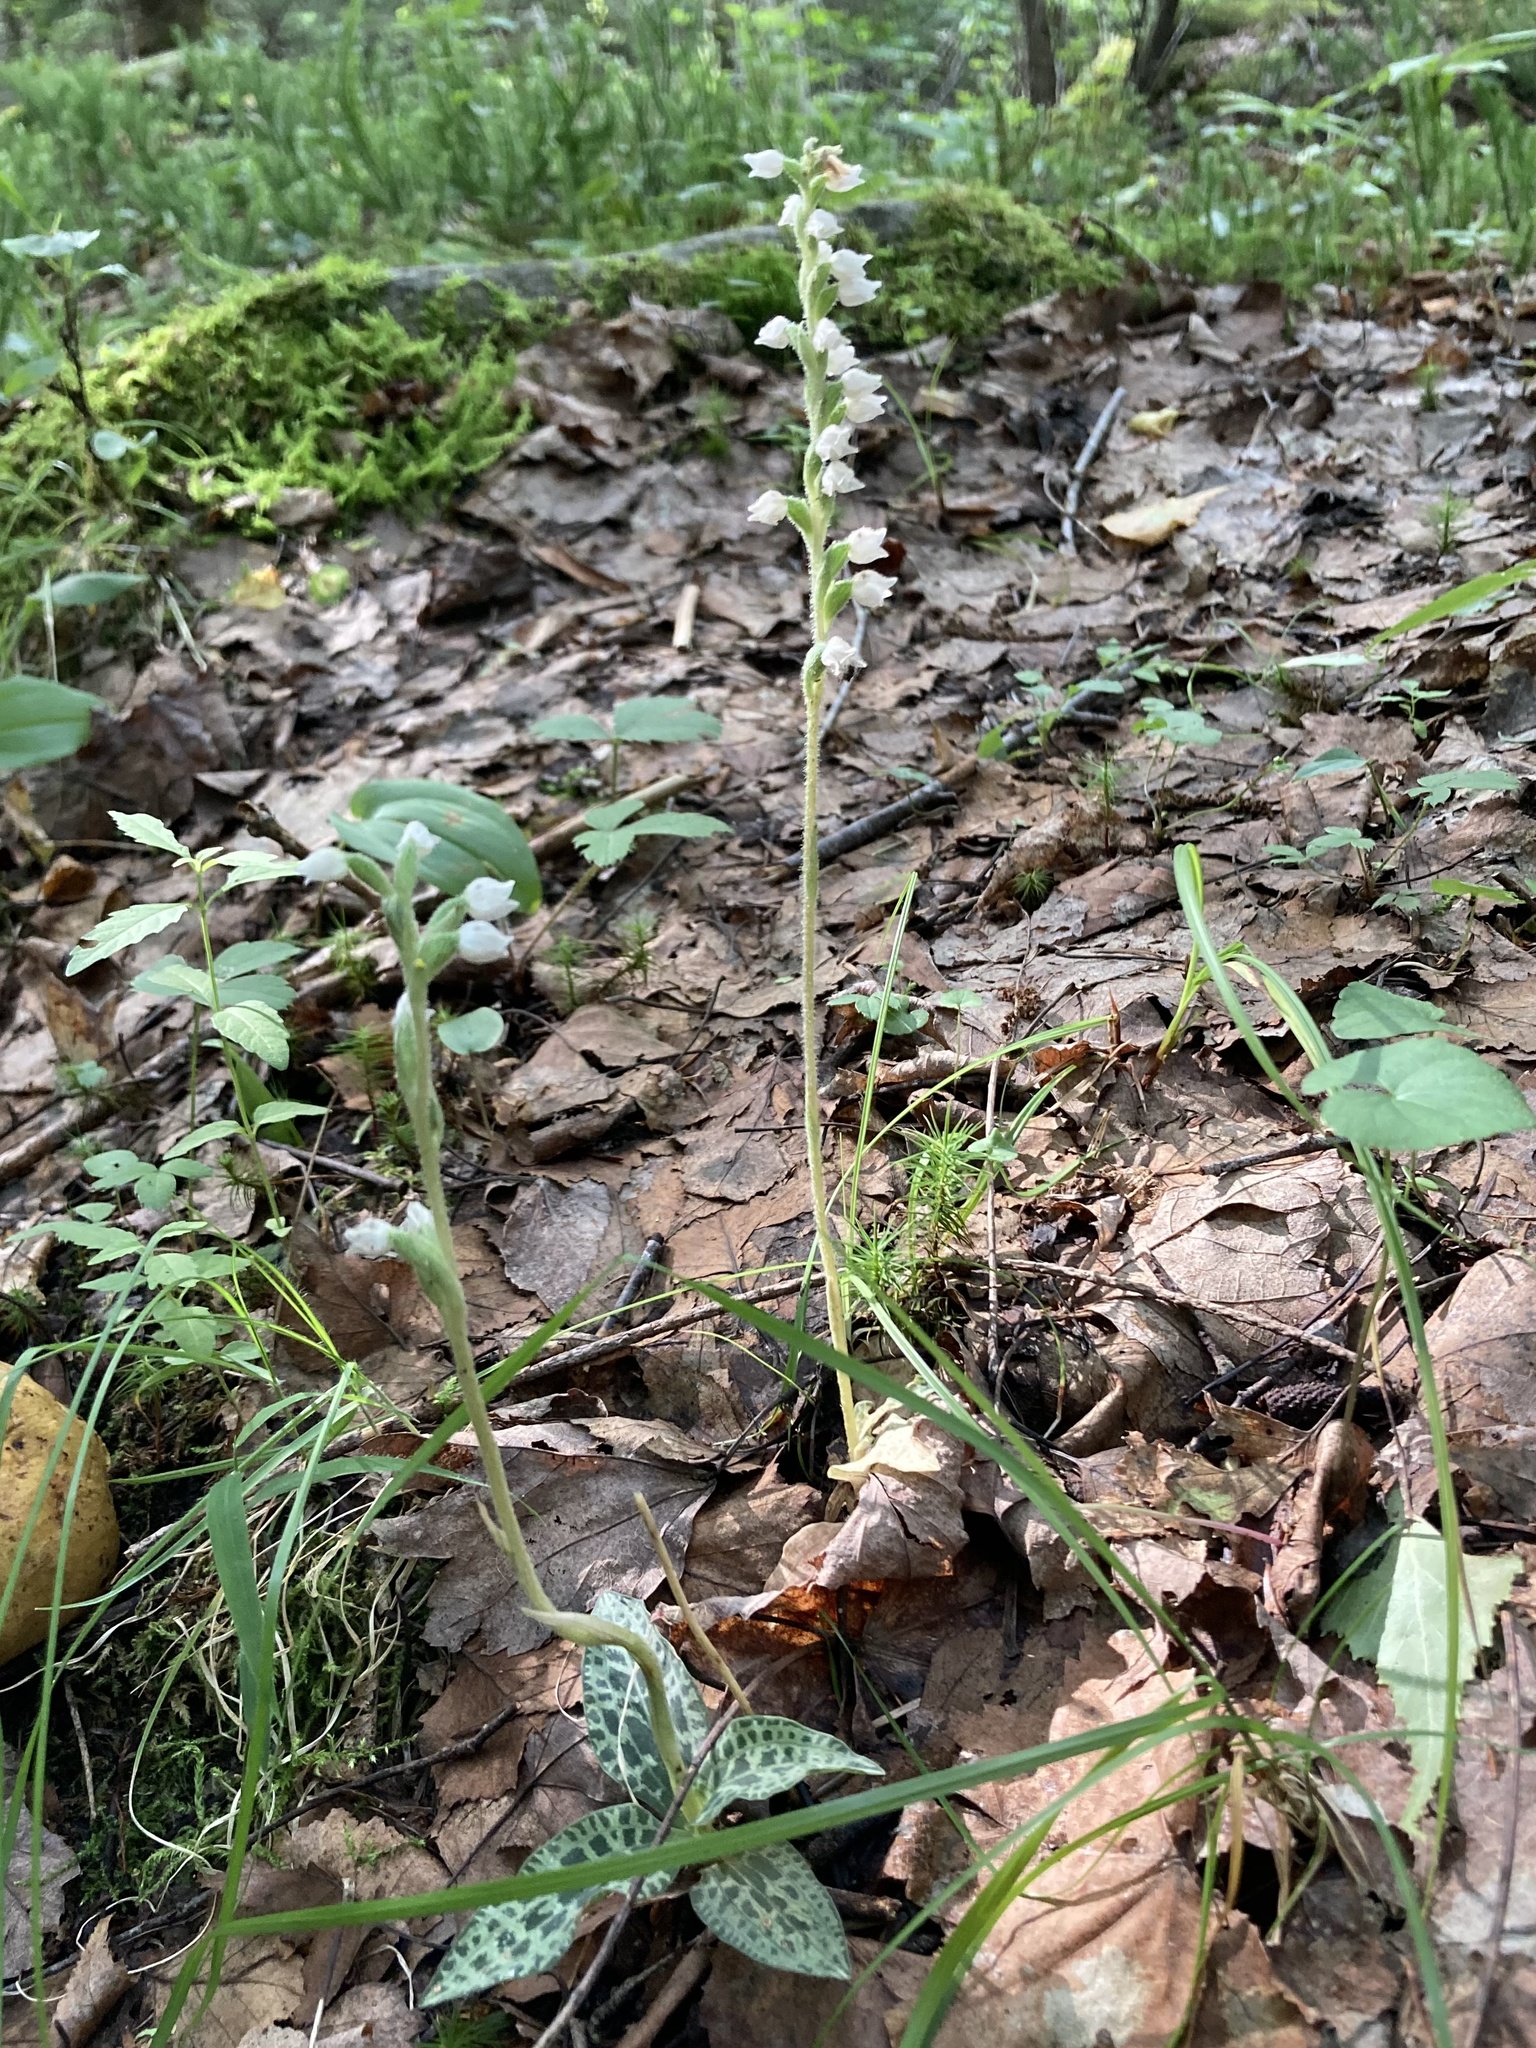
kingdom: Plantae
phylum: Tracheophyta
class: Liliopsida
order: Asparagales
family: Orchidaceae
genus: Goodyera
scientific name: Goodyera tesselata
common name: Checkered rattlesnake-plantain
